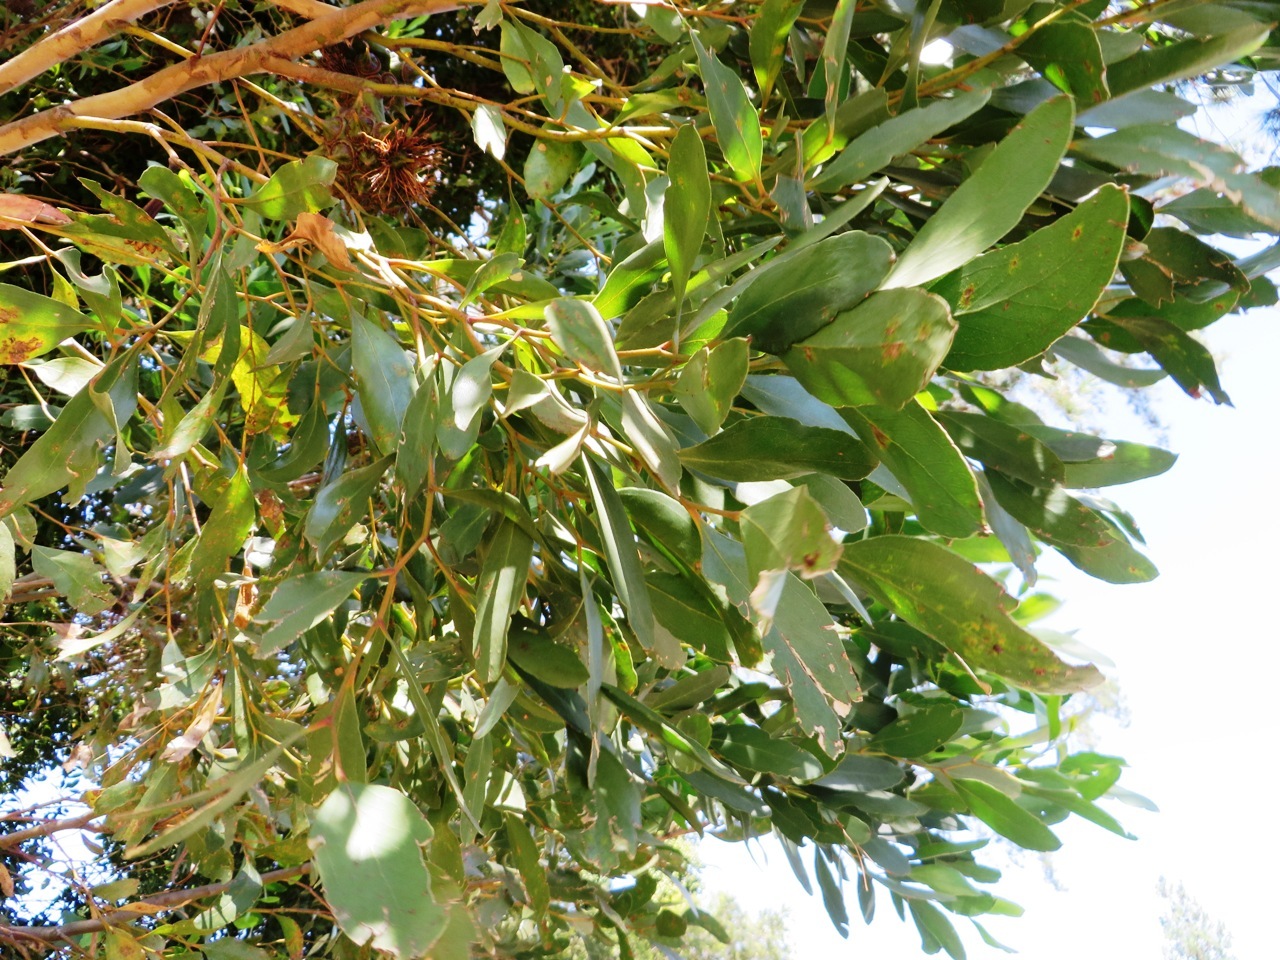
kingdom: Plantae
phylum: Tracheophyta
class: Magnoliopsida
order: Myrtales
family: Myrtaceae
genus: Eucalyptus
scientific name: Eucalyptus conferruminata
